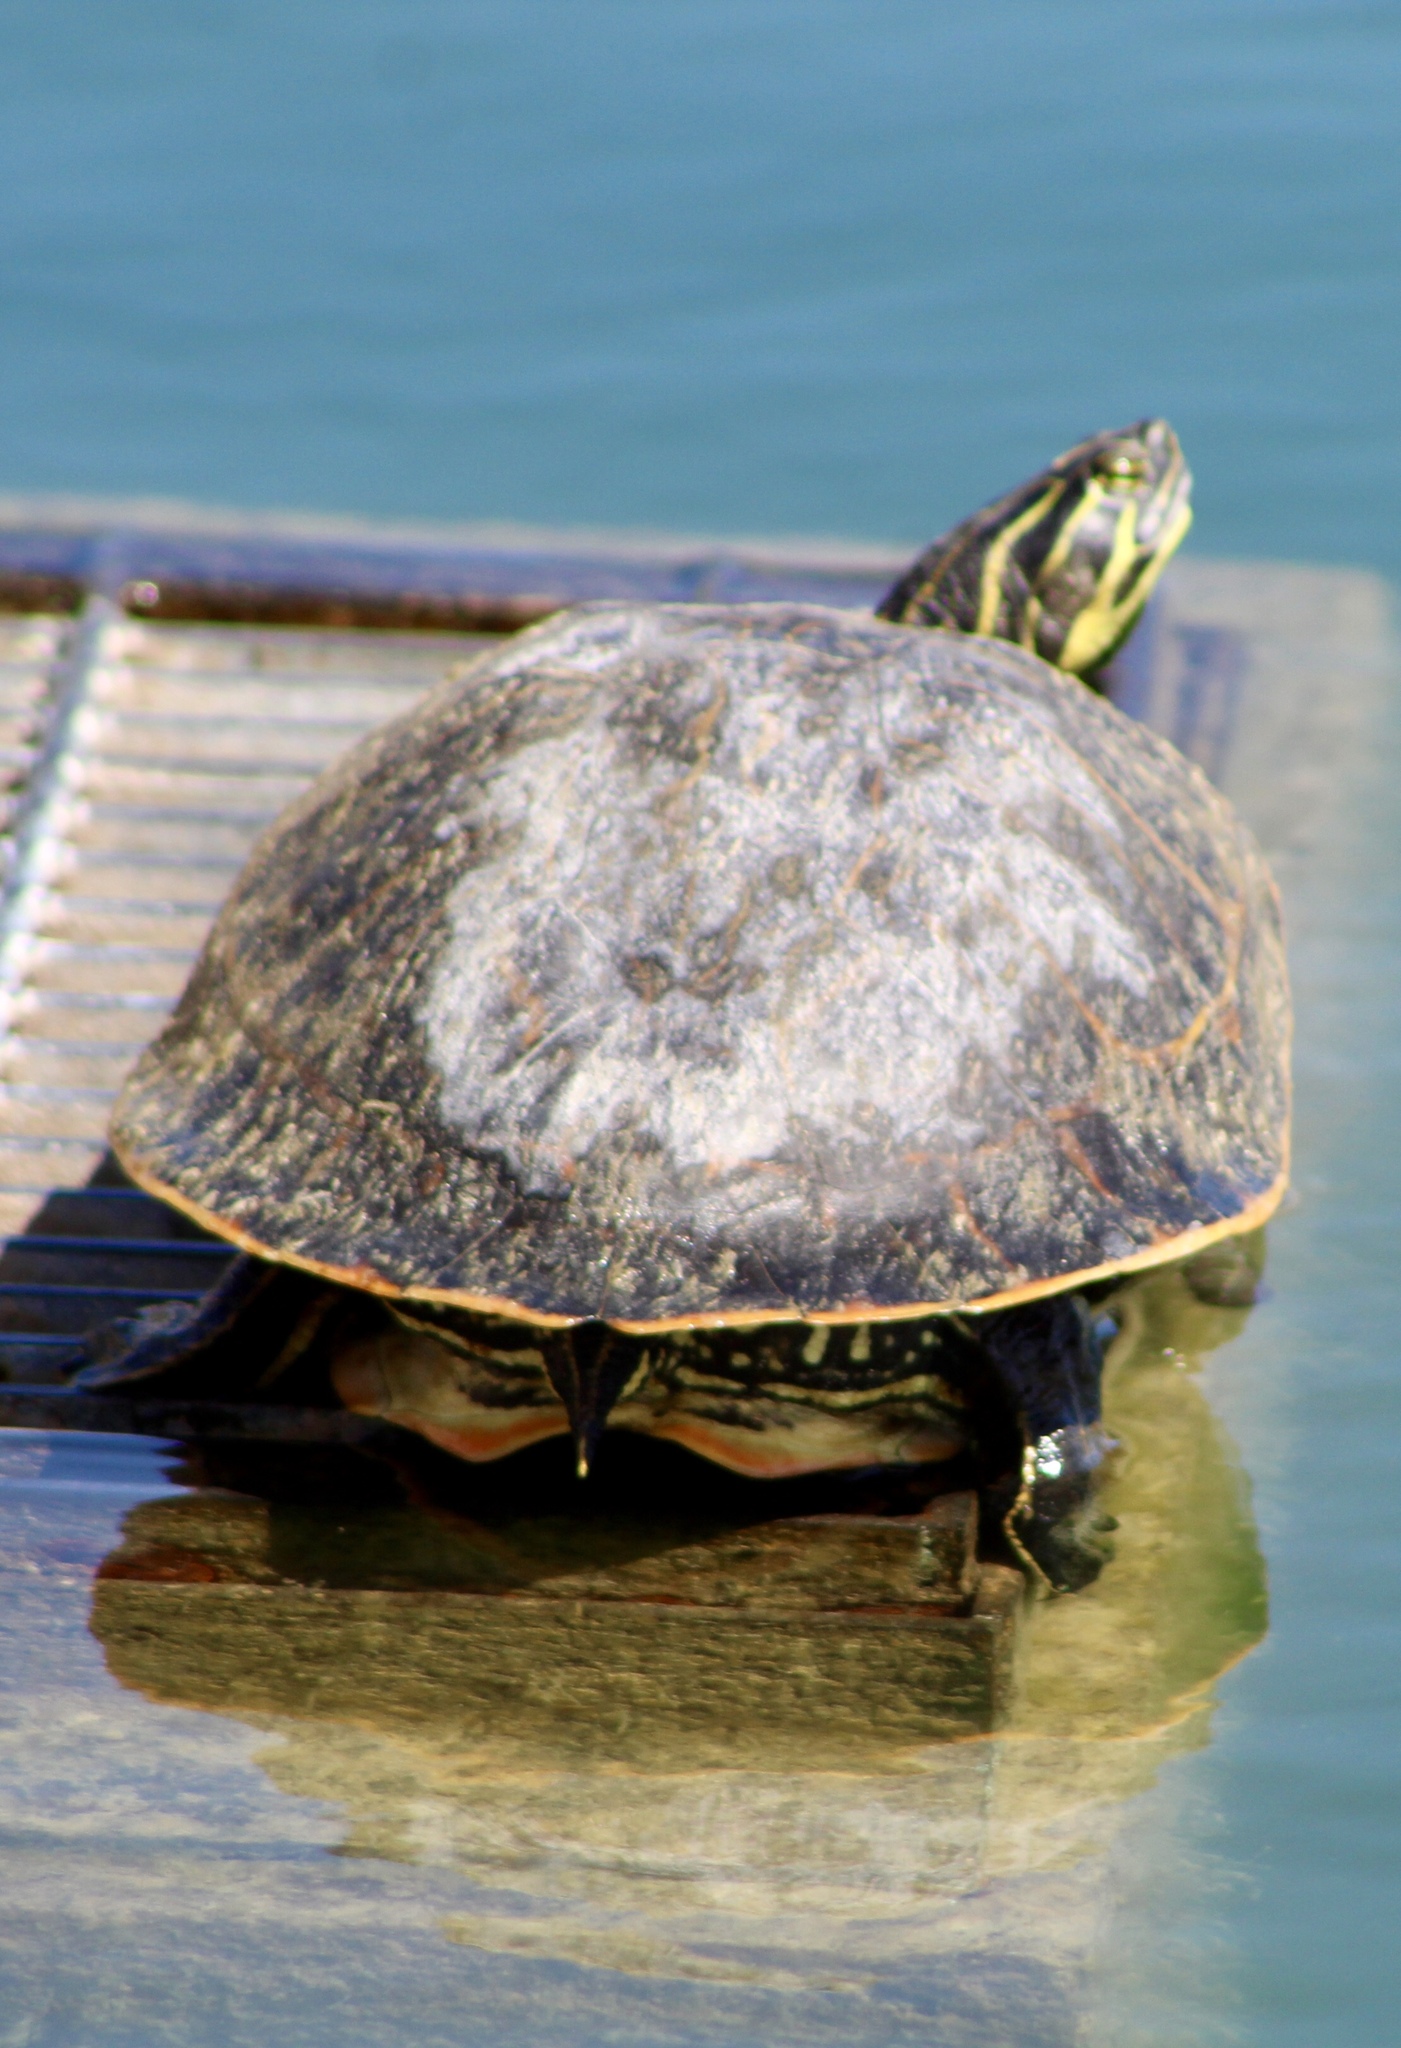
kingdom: Animalia
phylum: Chordata
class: Testudines
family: Emydidae
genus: Pseudemys
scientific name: Pseudemys concinna
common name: Eastern river cooter
